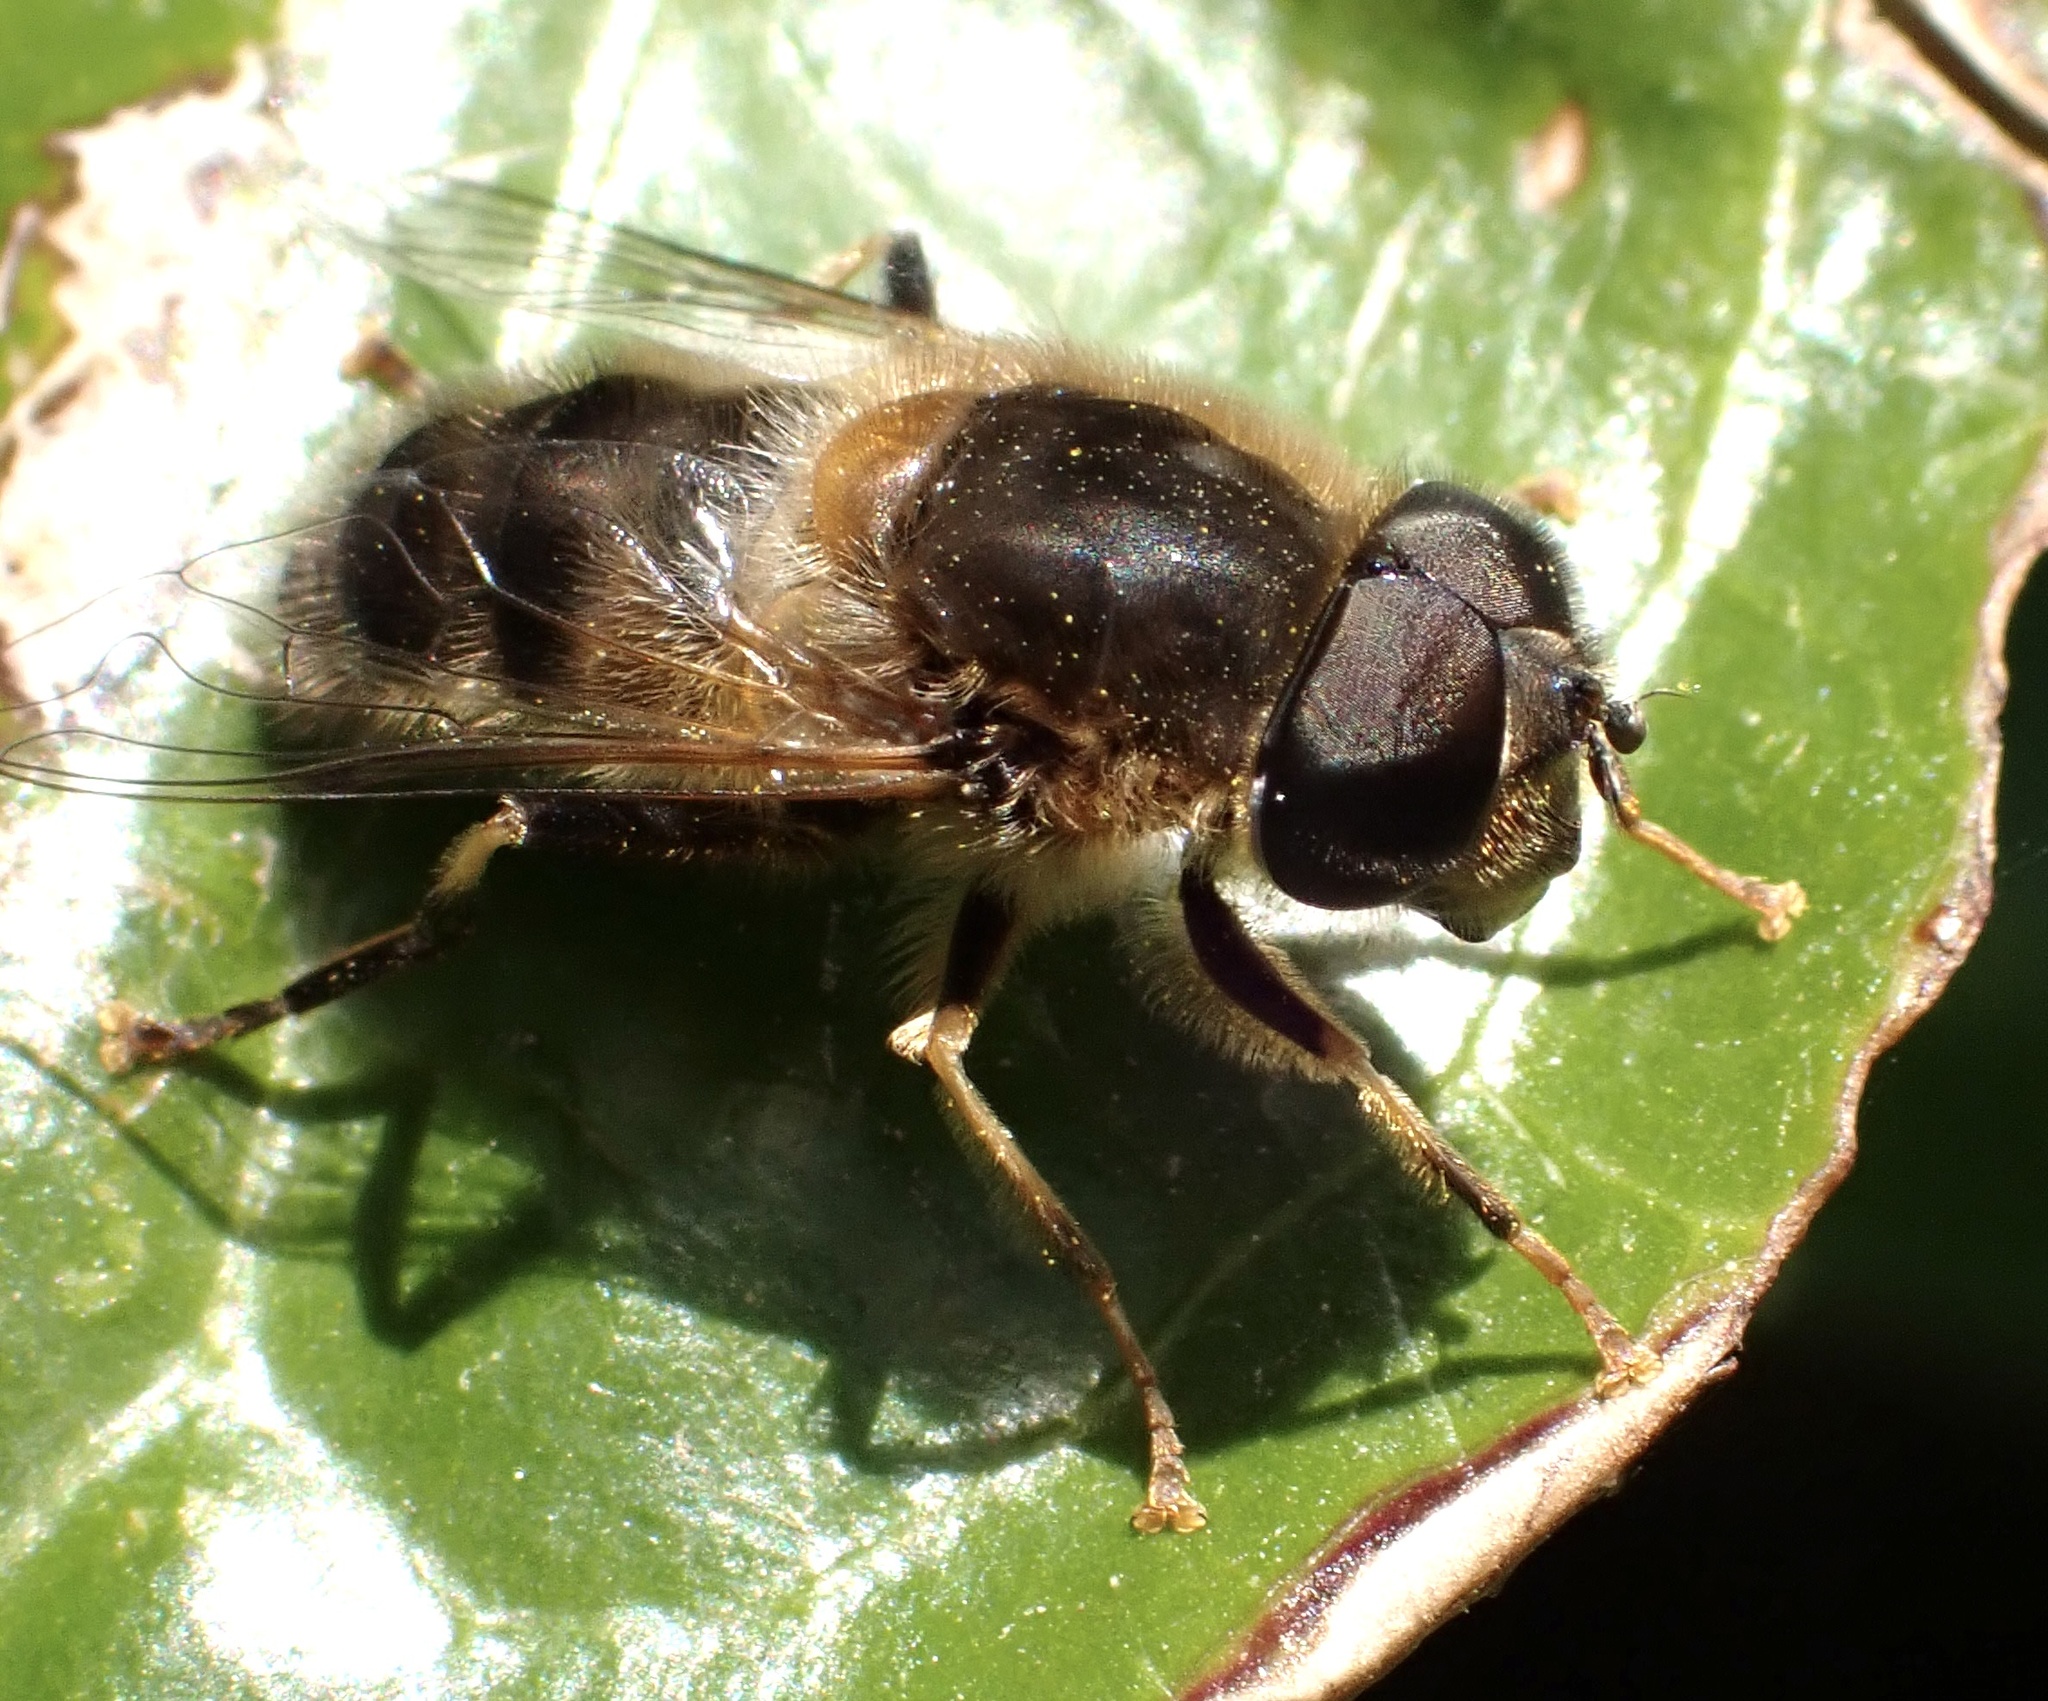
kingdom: Animalia
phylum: Arthropoda
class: Insecta
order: Diptera
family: Syrphidae
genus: Eristalis
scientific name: Eristalis pertinax
